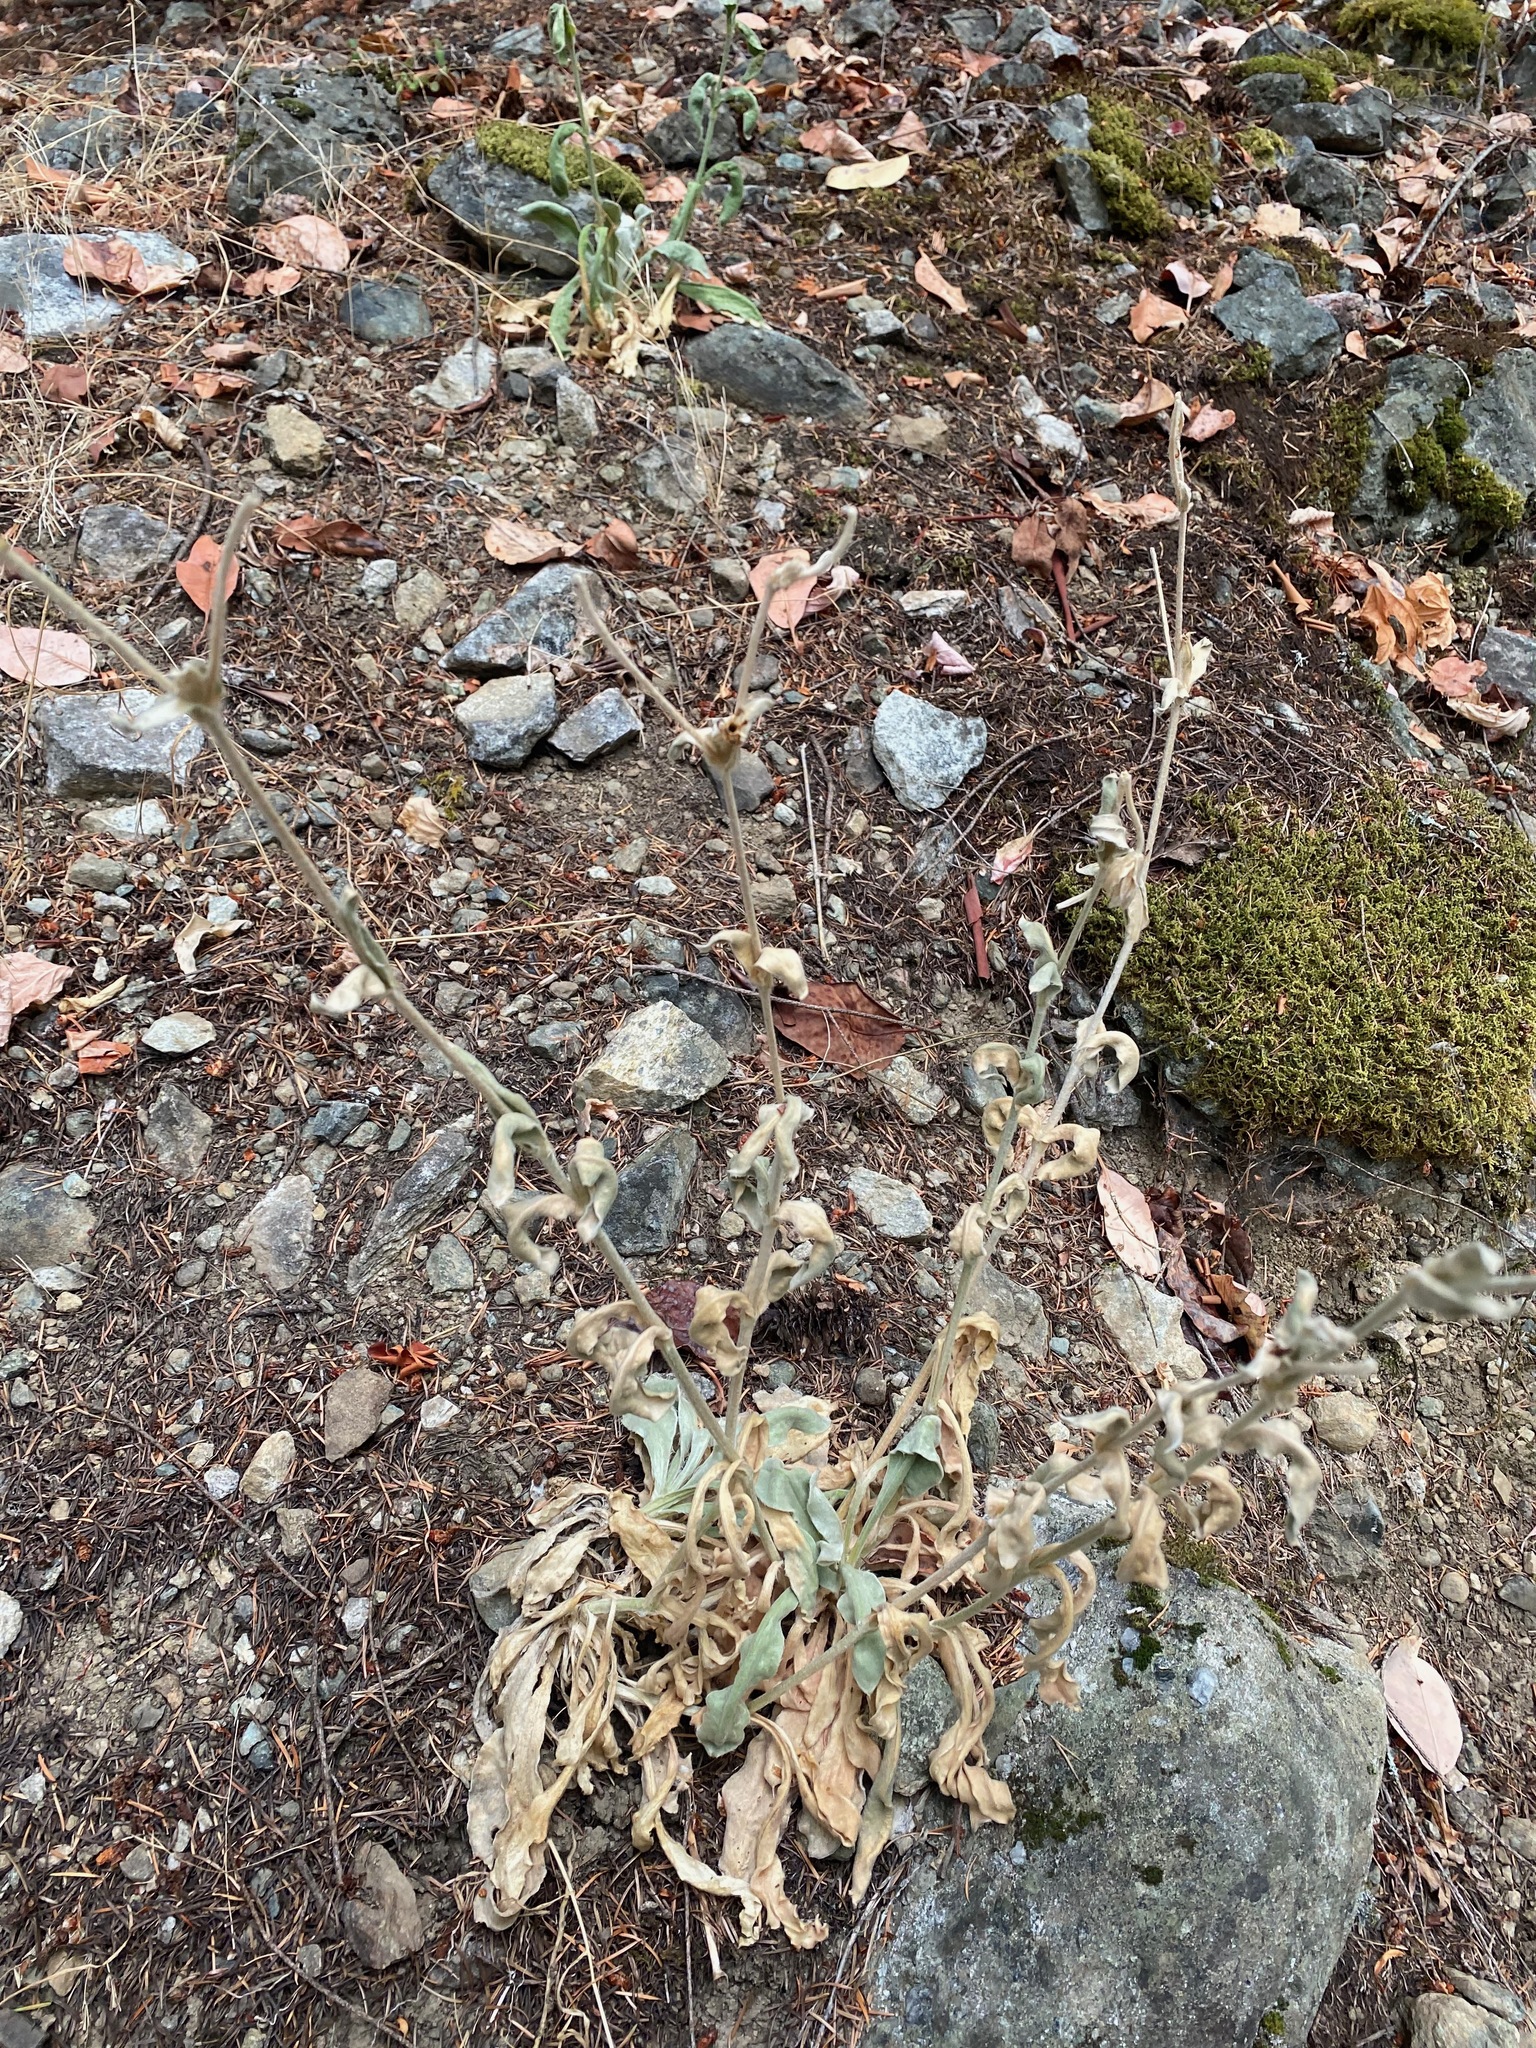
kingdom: Plantae
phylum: Tracheophyta
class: Magnoliopsida
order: Caryophyllales
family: Caryophyllaceae
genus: Silene
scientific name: Silene coronaria
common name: Rose campion
